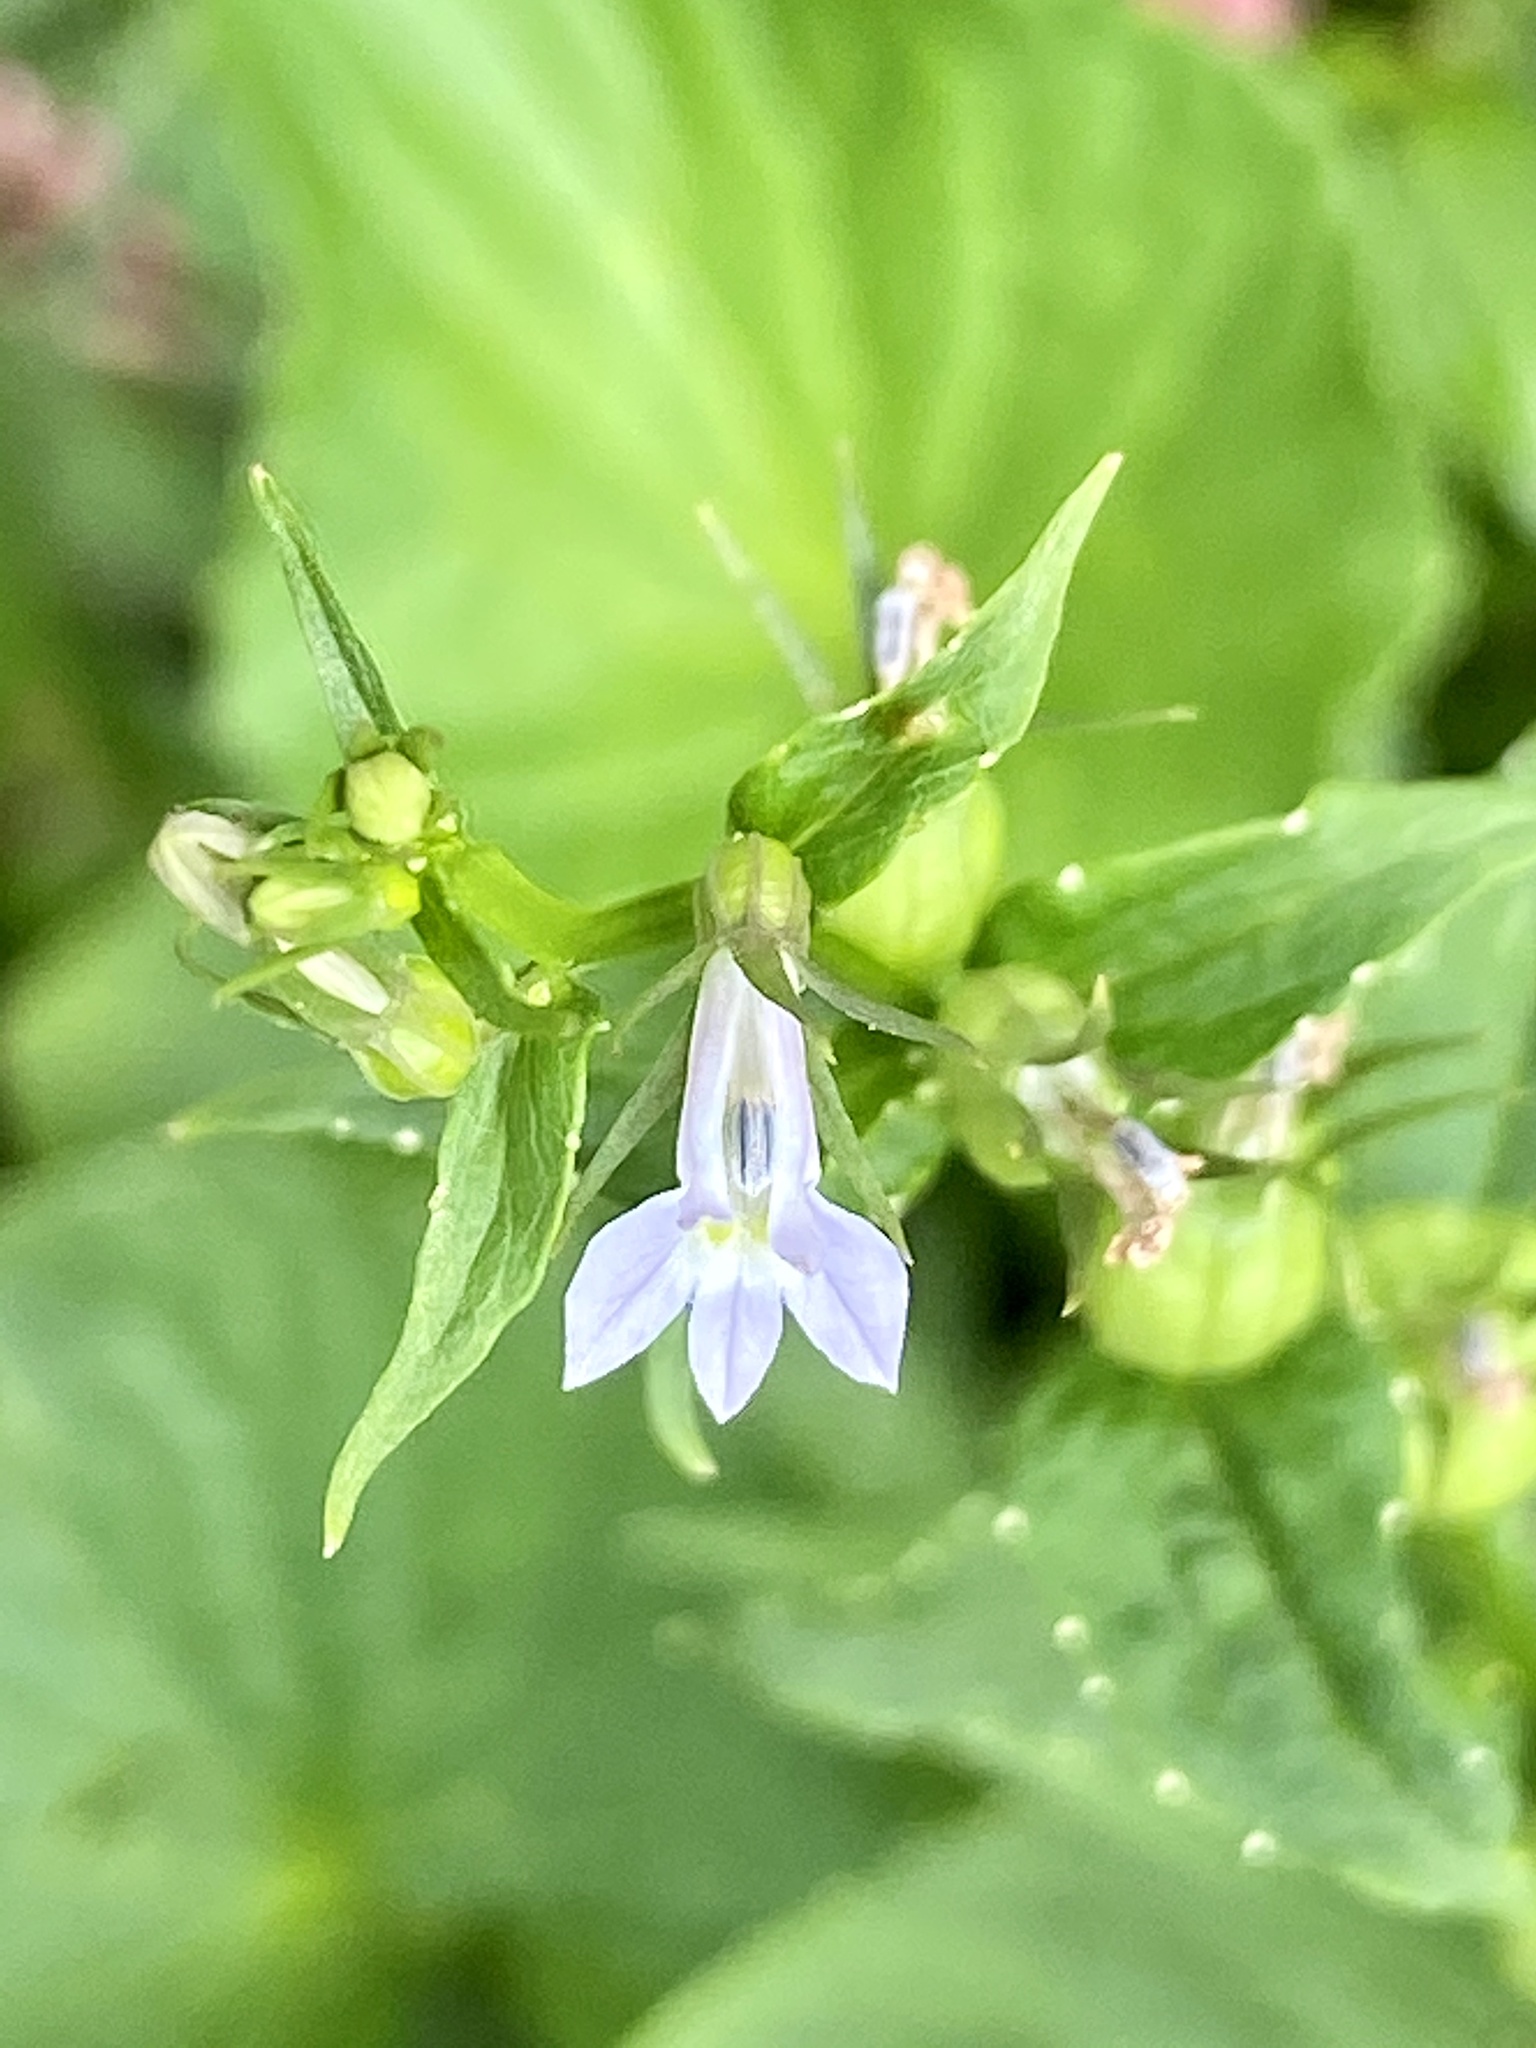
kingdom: Plantae
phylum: Tracheophyta
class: Magnoliopsida
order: Asterales
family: Campanulaceae
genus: Lobelia
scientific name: Lobelia inflata
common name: Indian tobacco
